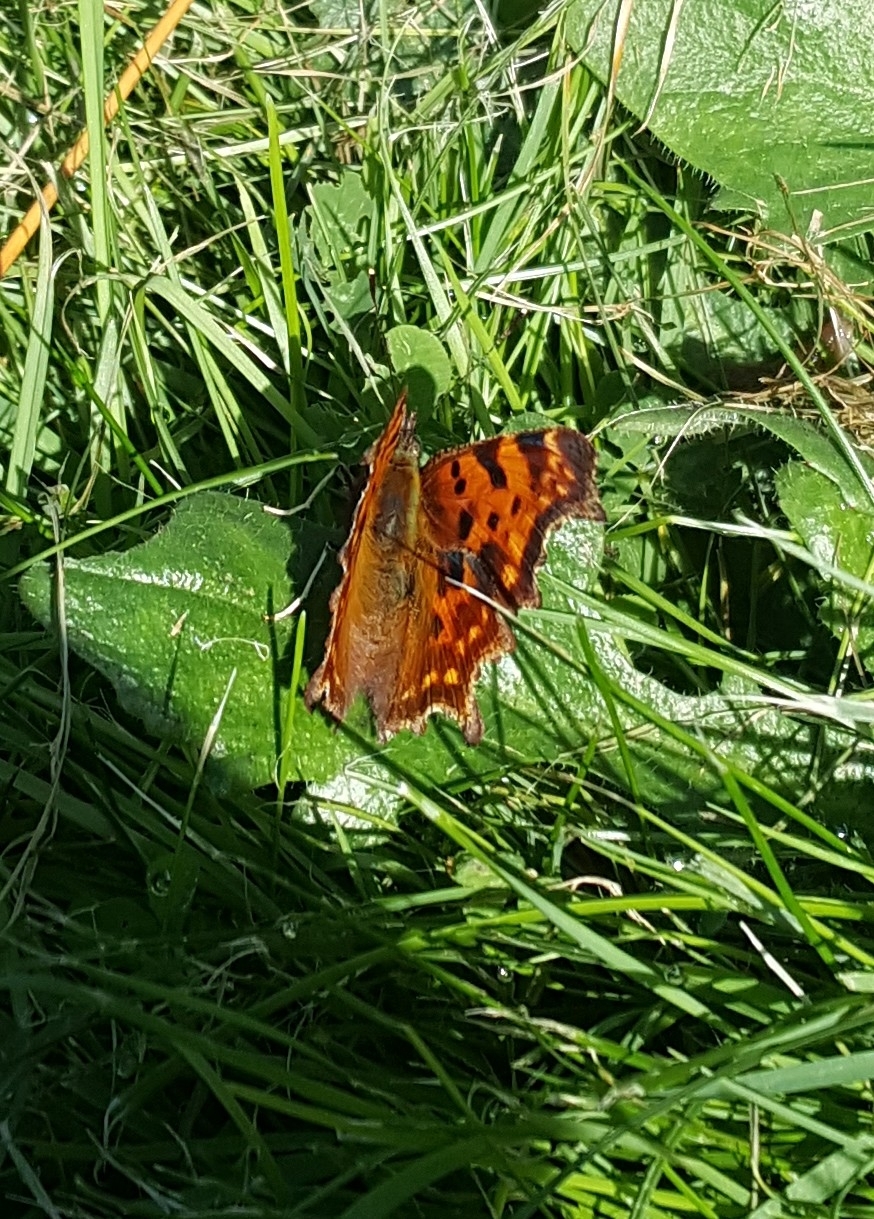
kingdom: Animalia
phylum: Arthropoda
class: Insecta
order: Lepidoptera
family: Nymphalidae
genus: Polygonia
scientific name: Polygonia c-album
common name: Comma
